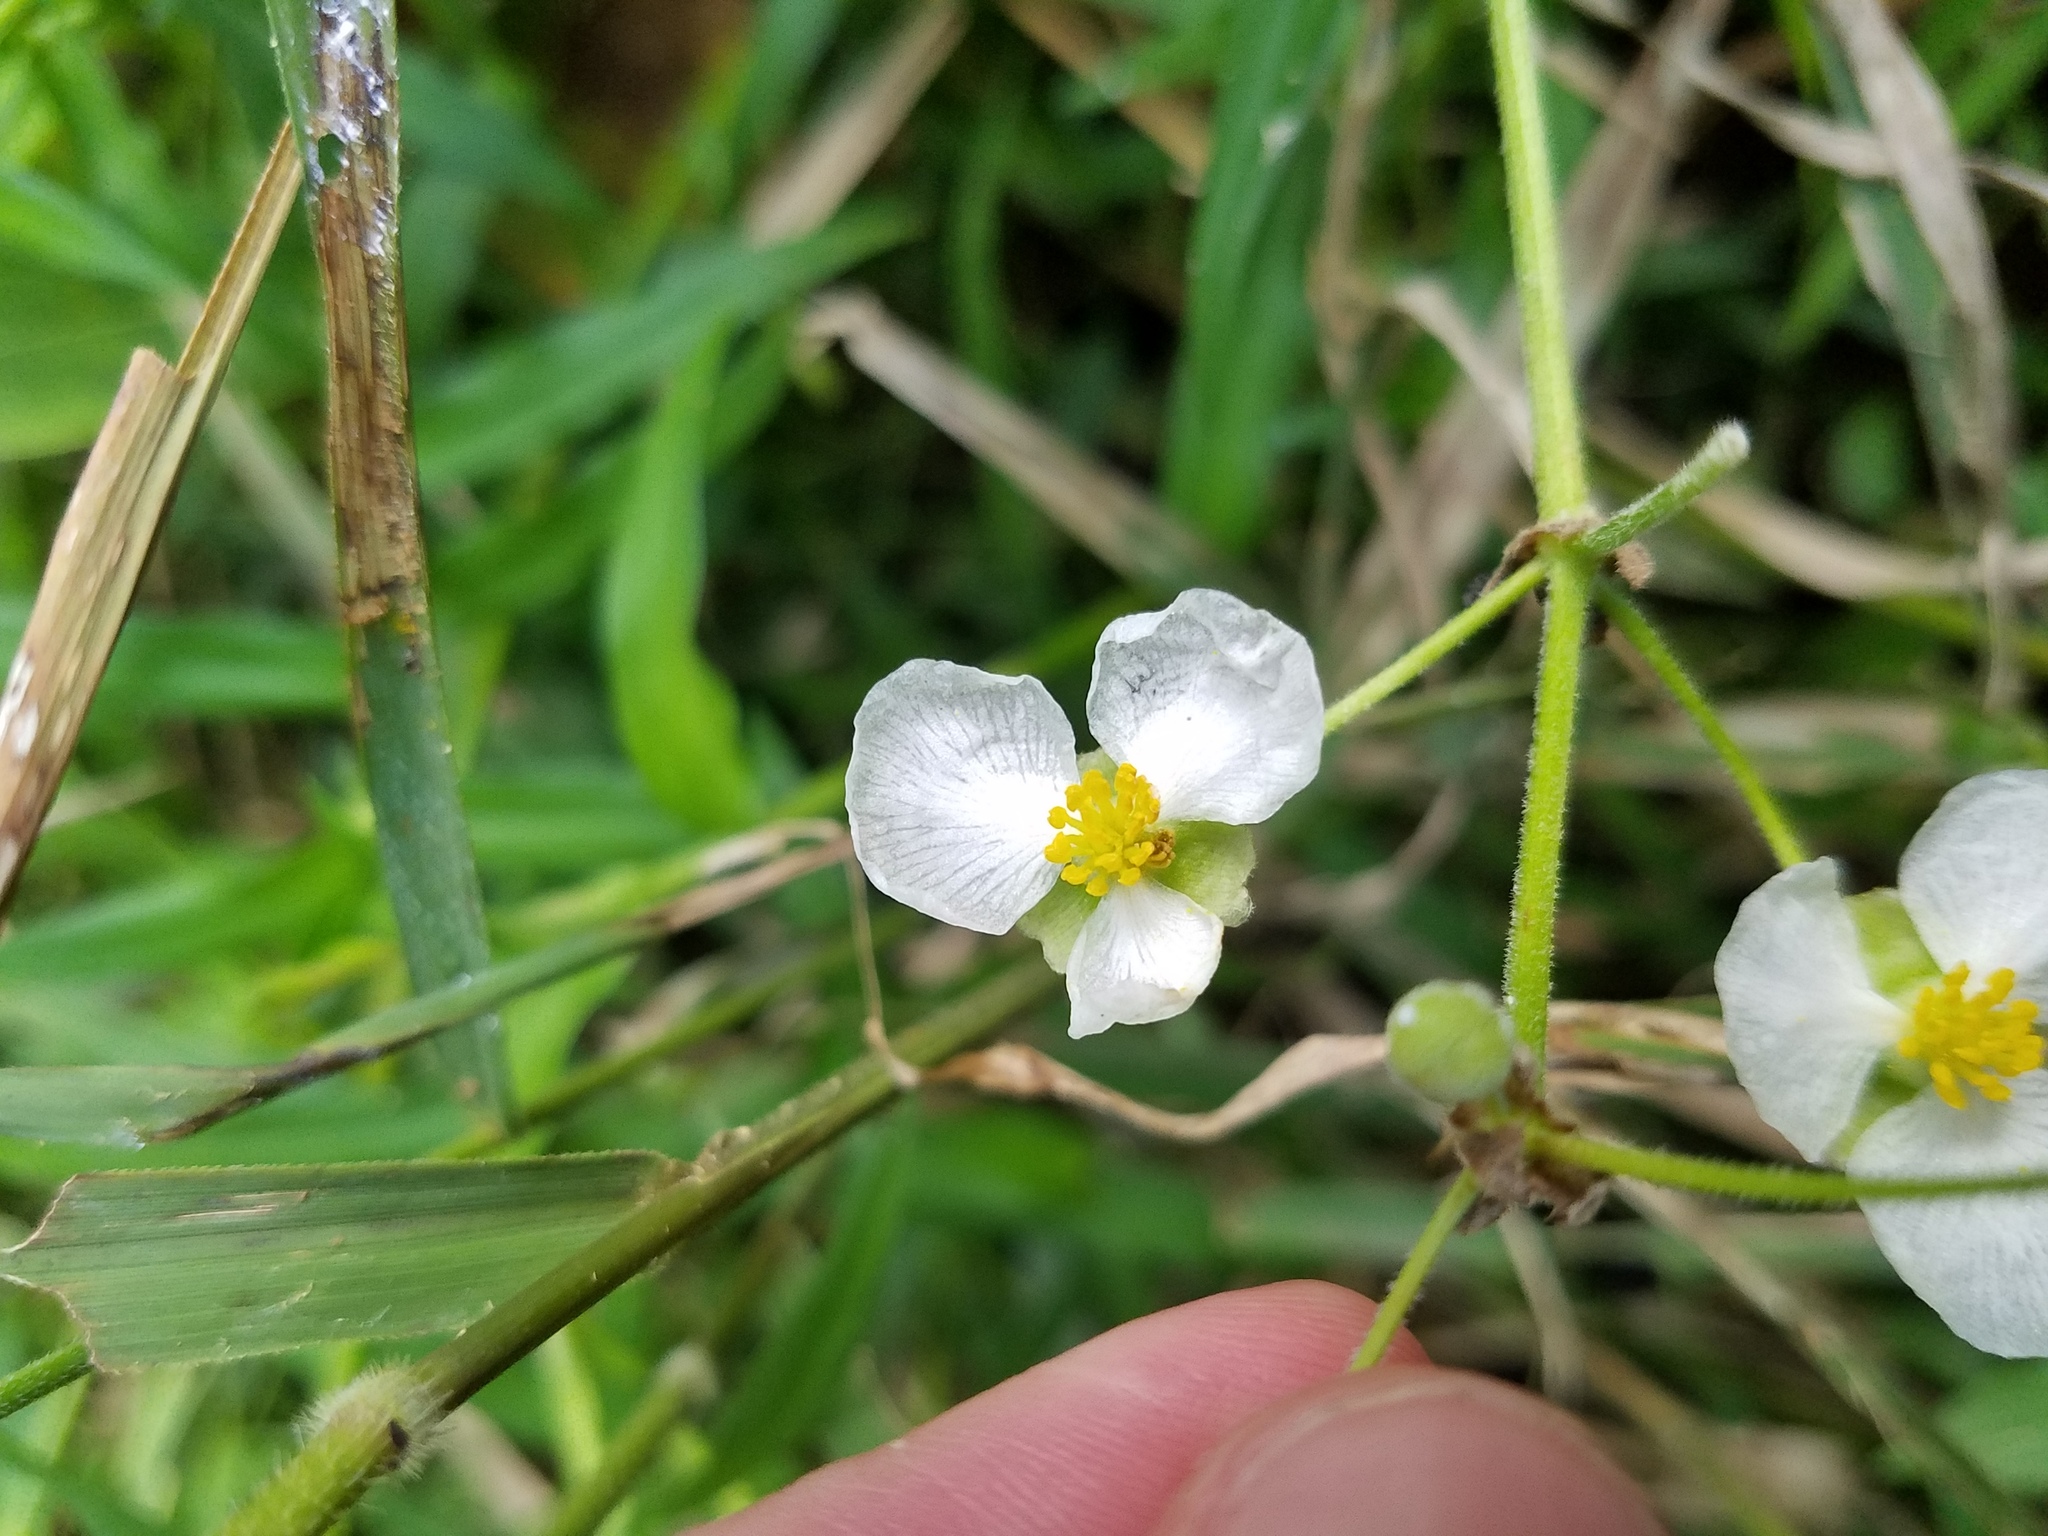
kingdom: Plantae
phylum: Tracheophyta
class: Liliopsida
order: Alismatales
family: Alismataceae
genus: Sagittaria
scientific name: Sagittaria latifolia
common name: Duck-potato
